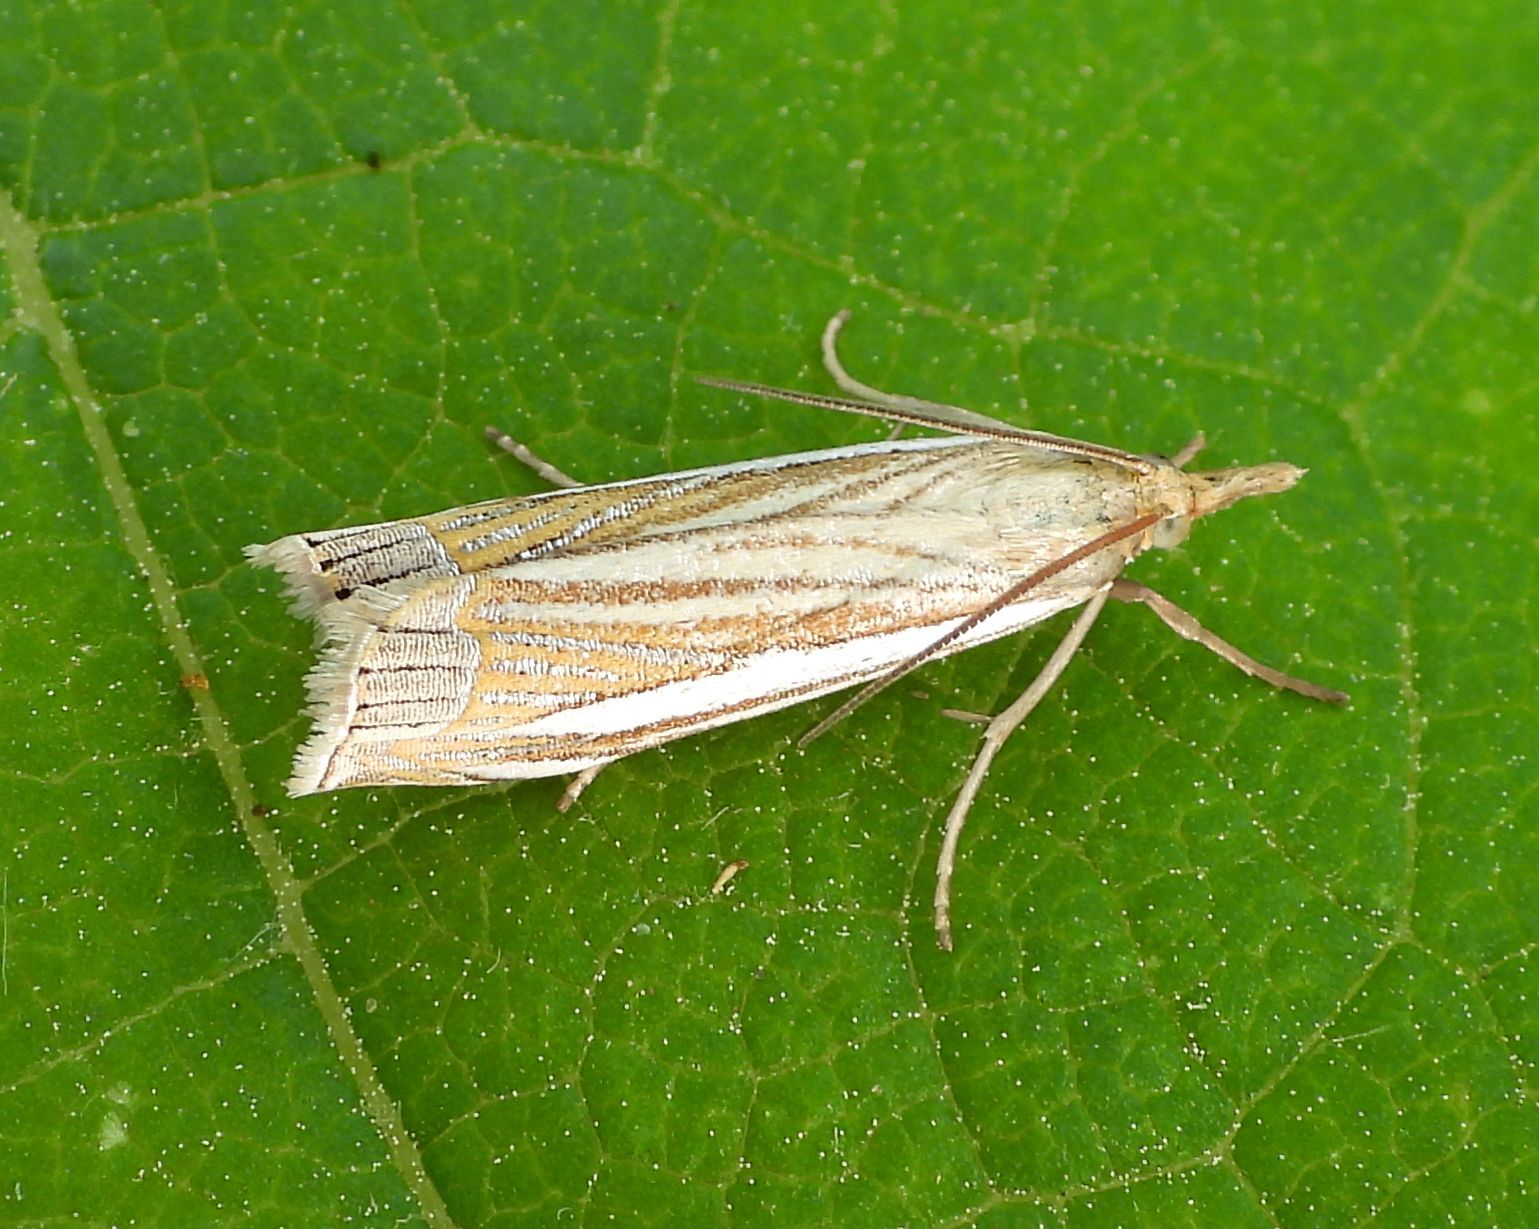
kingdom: Animalia
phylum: Arthropoda
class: Insecta
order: Lepidoptera
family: Crambidae
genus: Crambus
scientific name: Crambus laqueatellus
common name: Eastern grass-veneer
